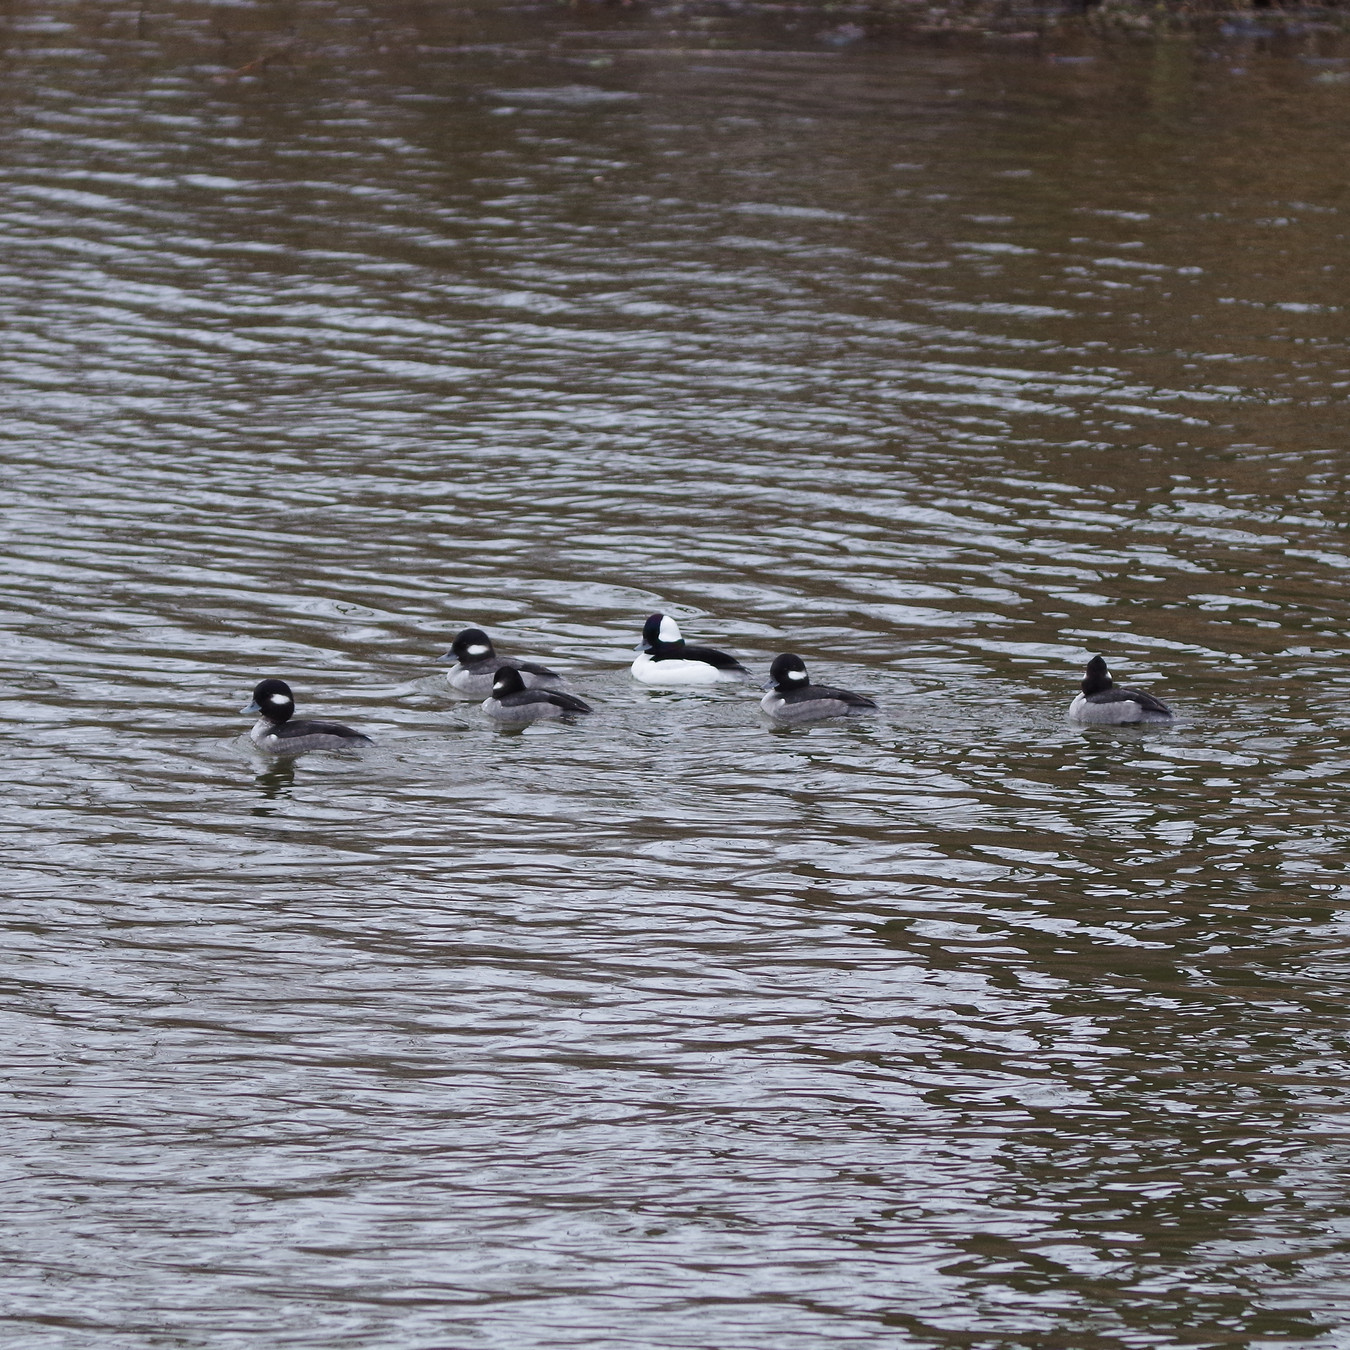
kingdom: Animalia
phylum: Chordata
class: Aves
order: Anseriformes
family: Anatidae
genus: Bucephala
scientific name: Bucephala albeola
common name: Bufflehead
